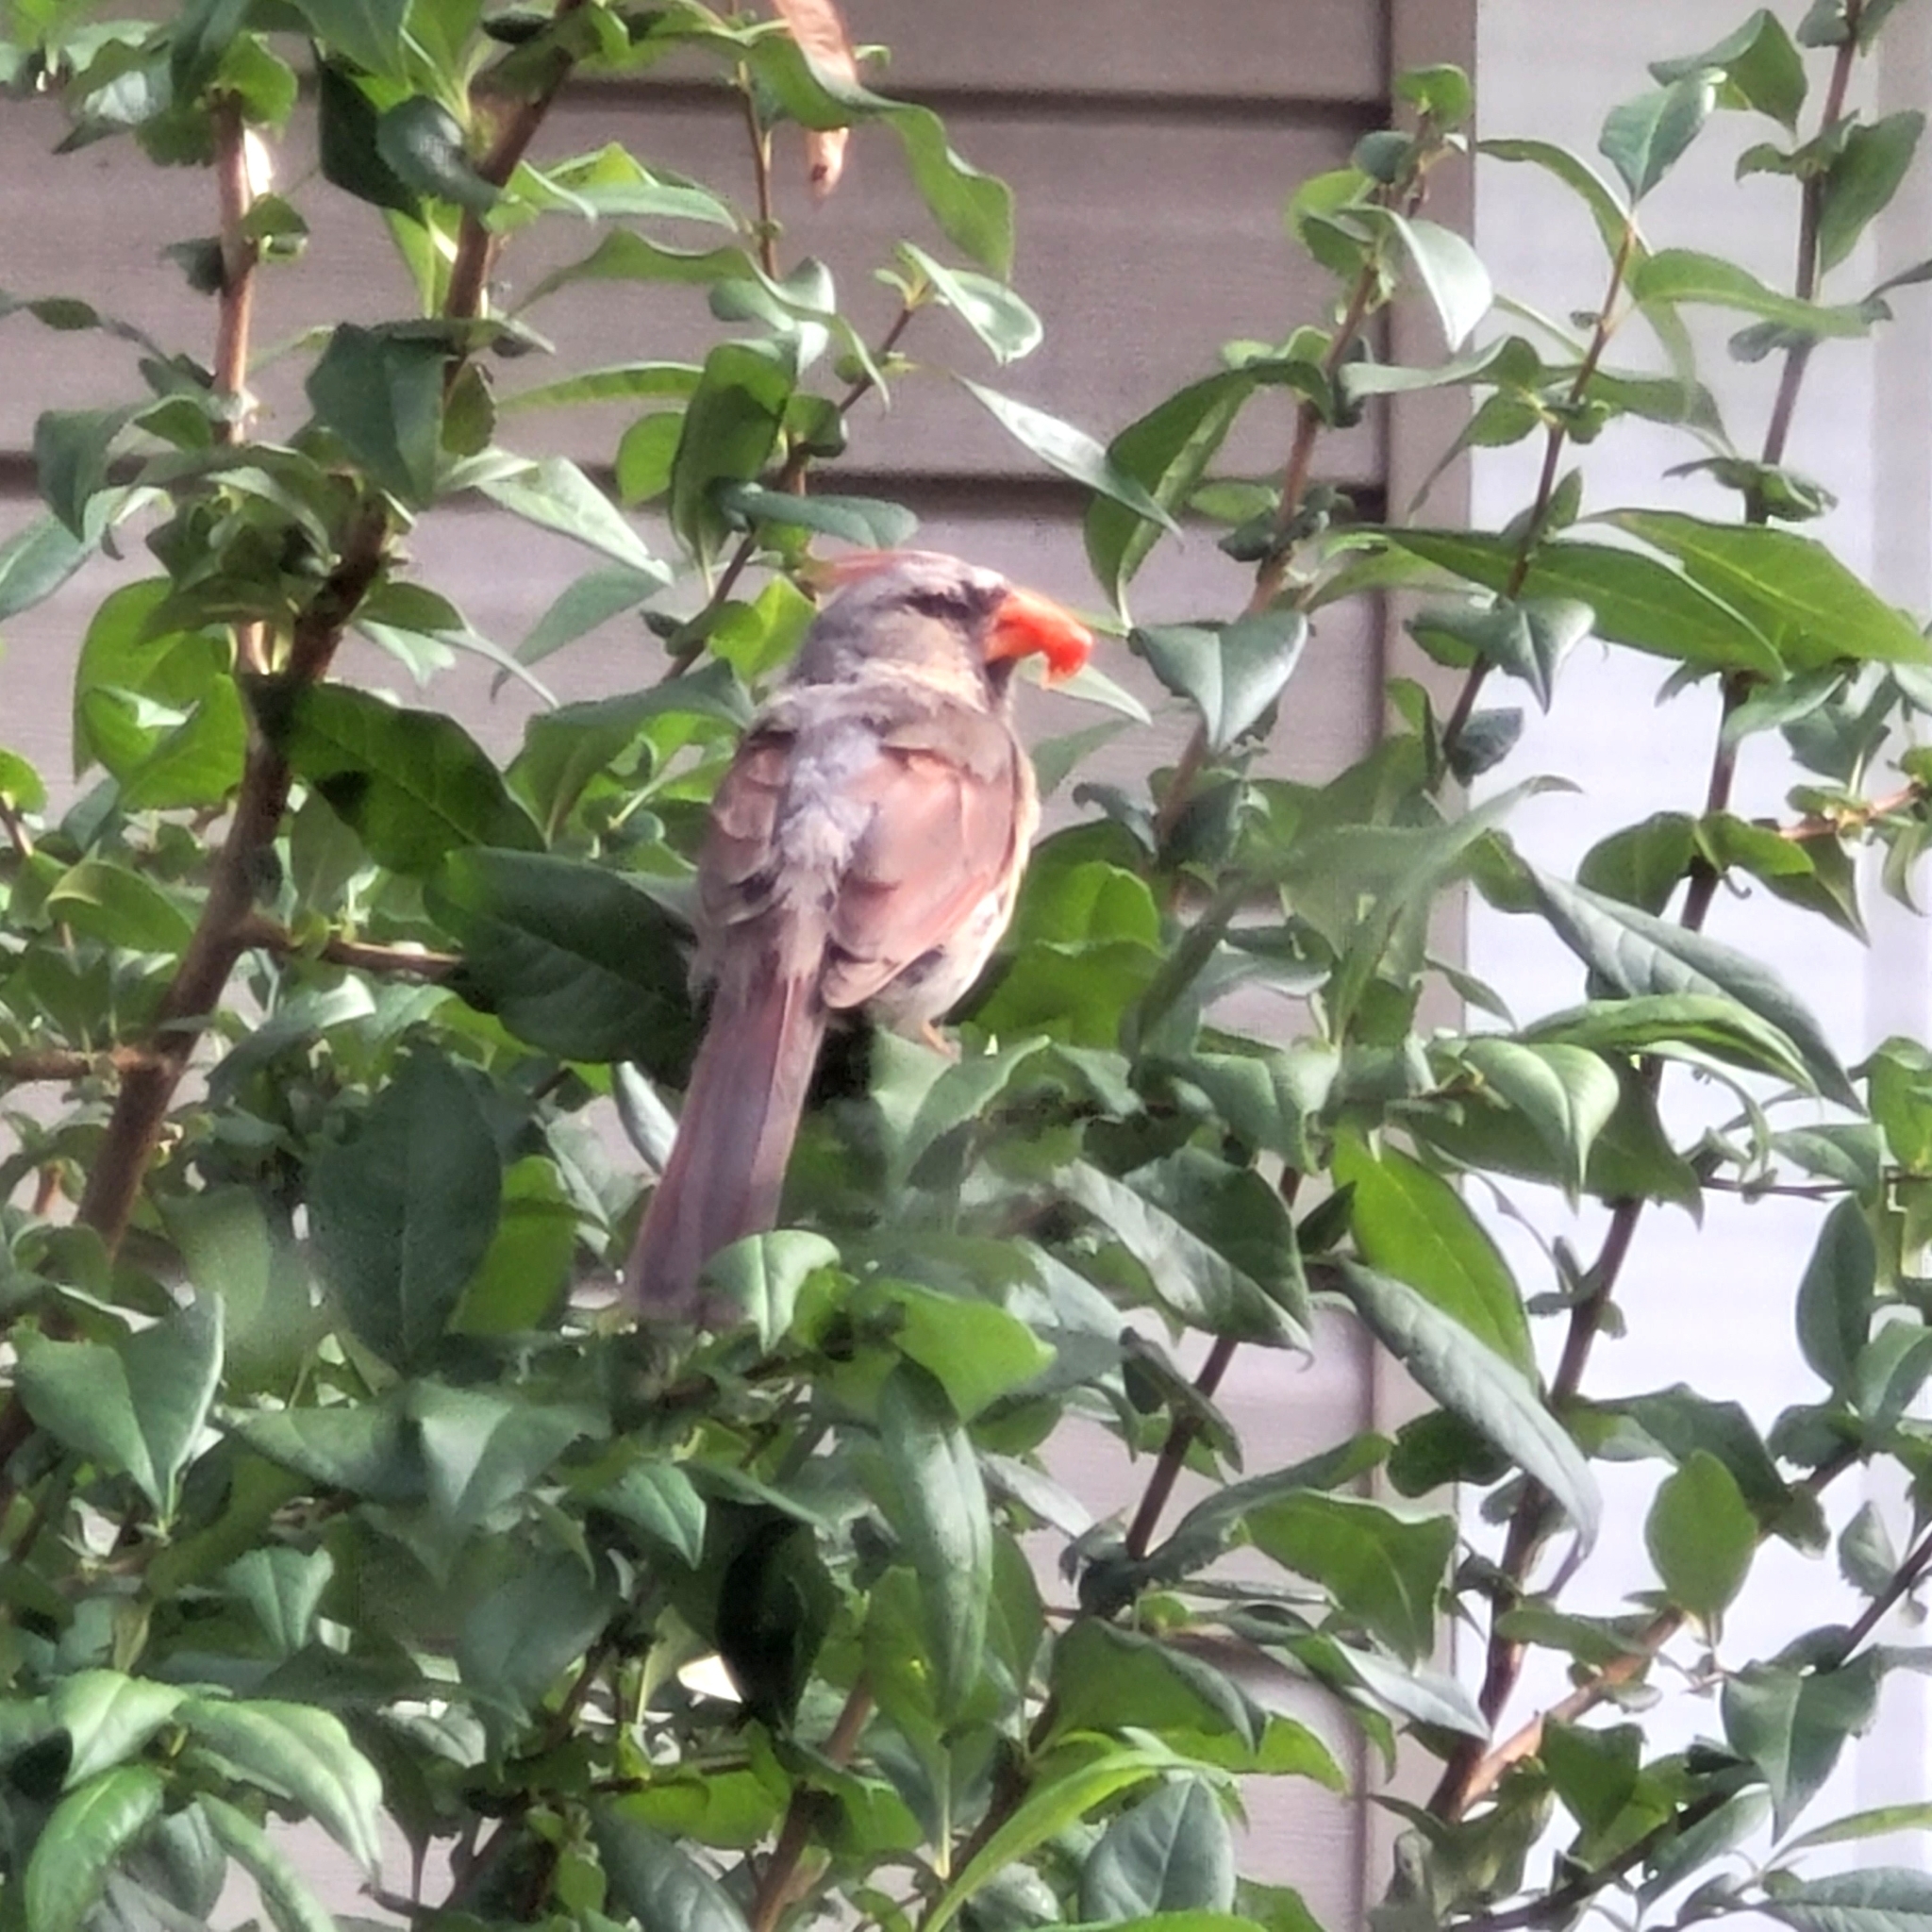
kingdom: Animalia
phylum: Chordata
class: Aves
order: Passeriformes
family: Cardinalidae
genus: Cardinalis
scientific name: Cardinalis cardinalis
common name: Northern cardinal
